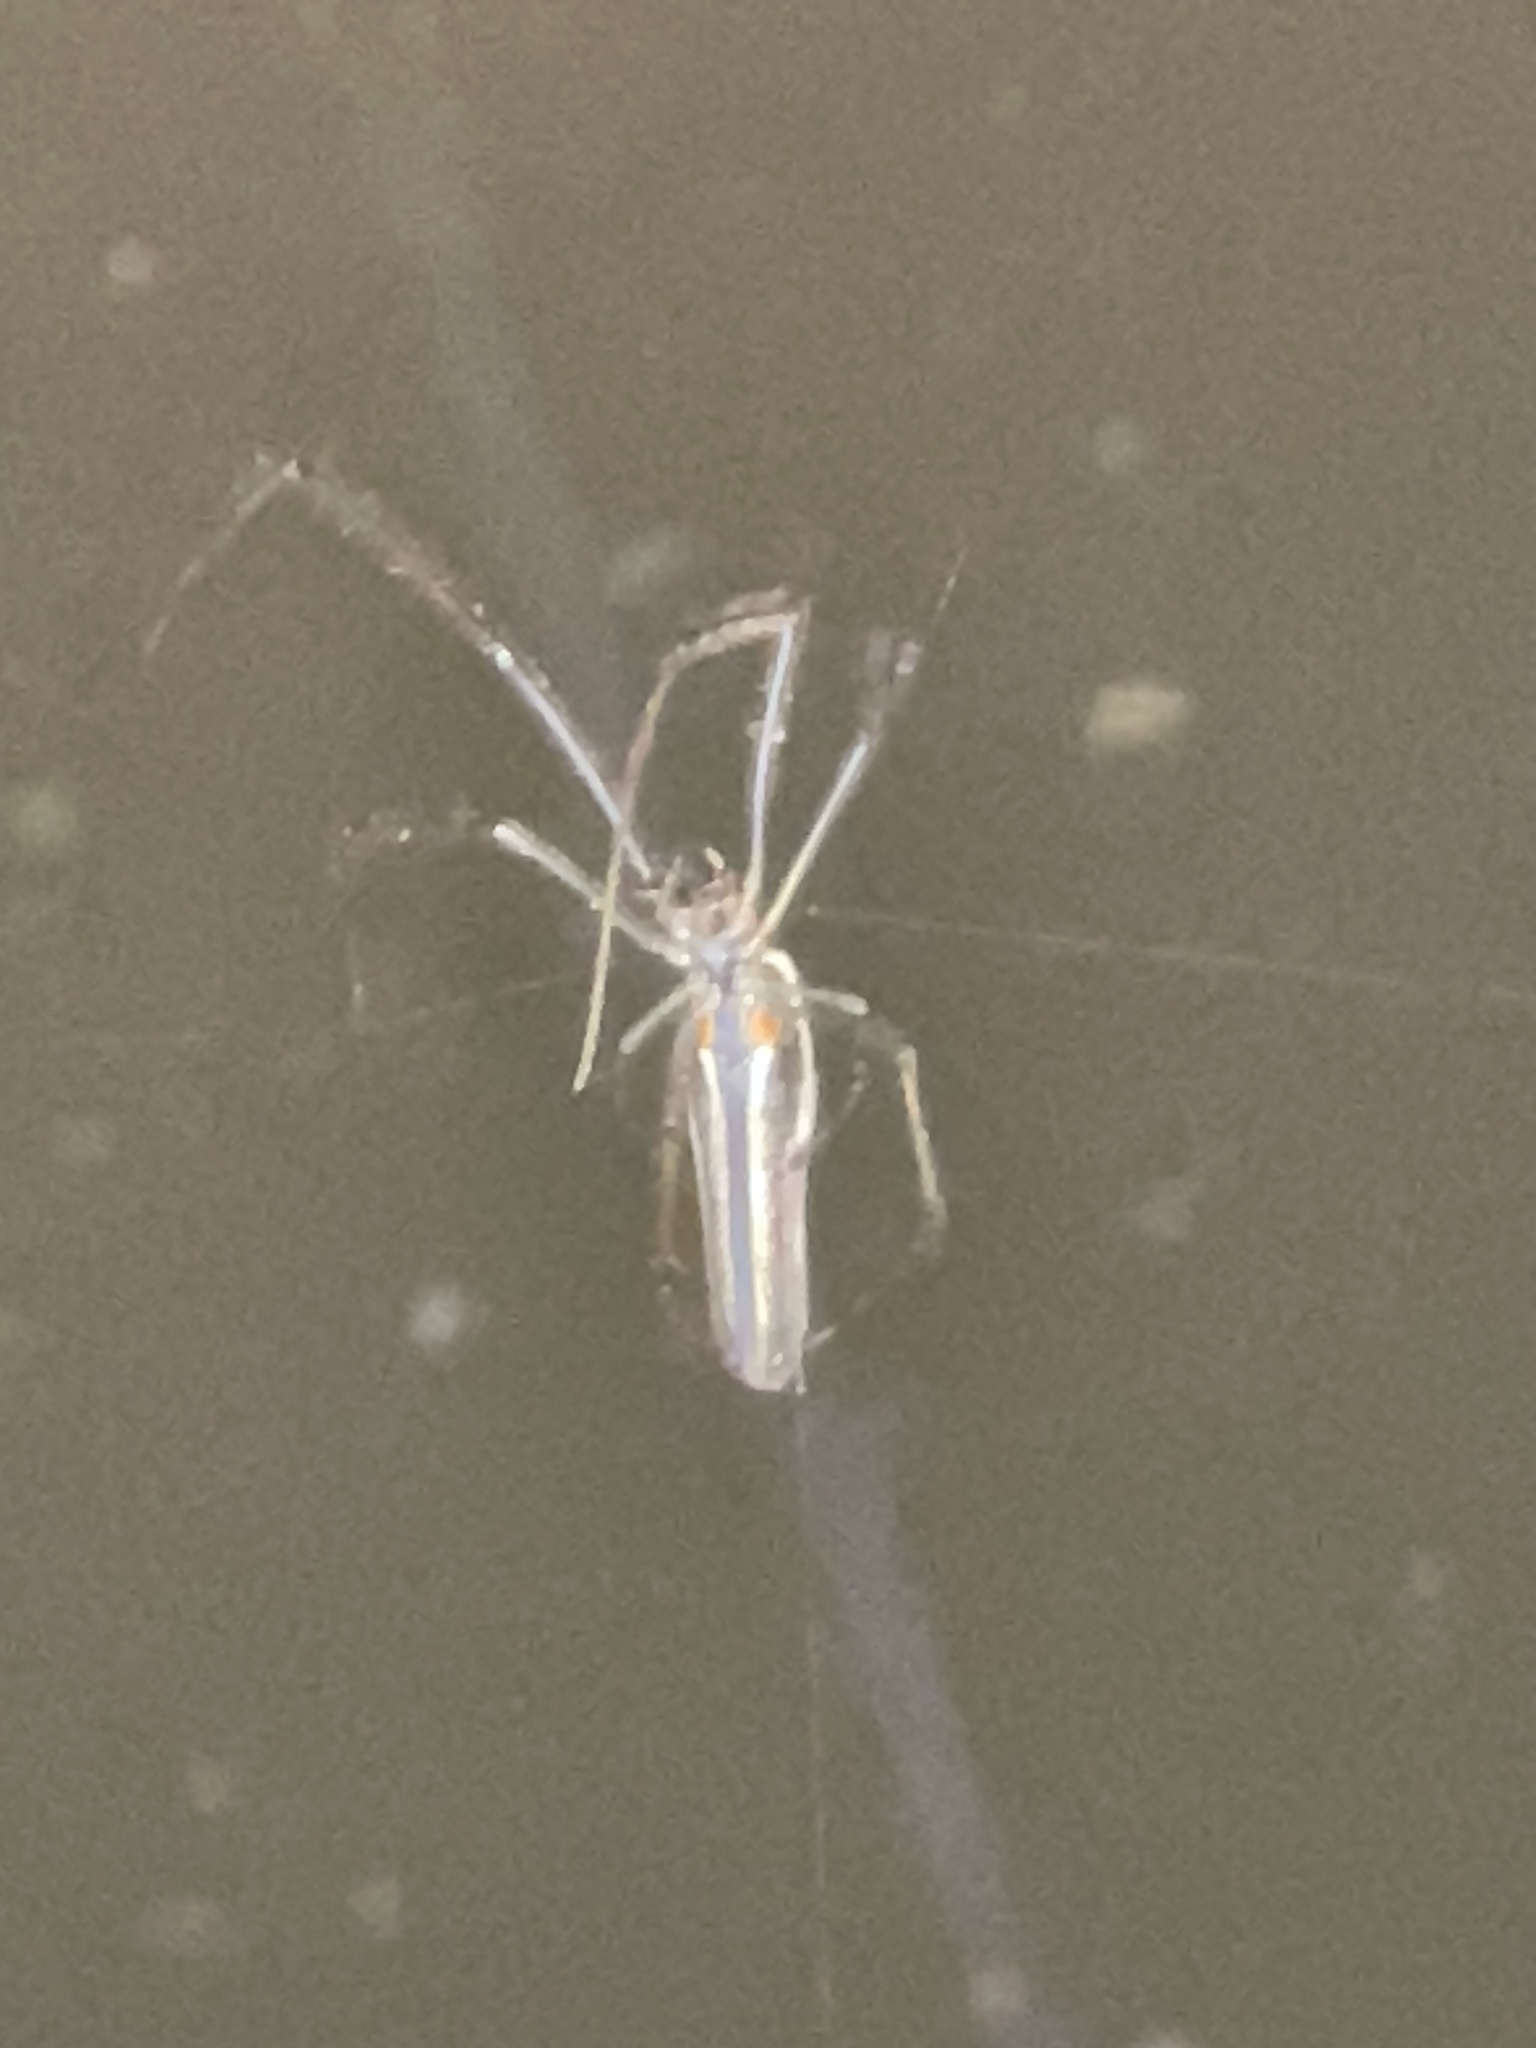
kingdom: Animalia
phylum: Arthropoda
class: Arachnida
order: Araneae
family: Tetragnathidae
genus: Tetragnatha
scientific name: Tetragnatha
